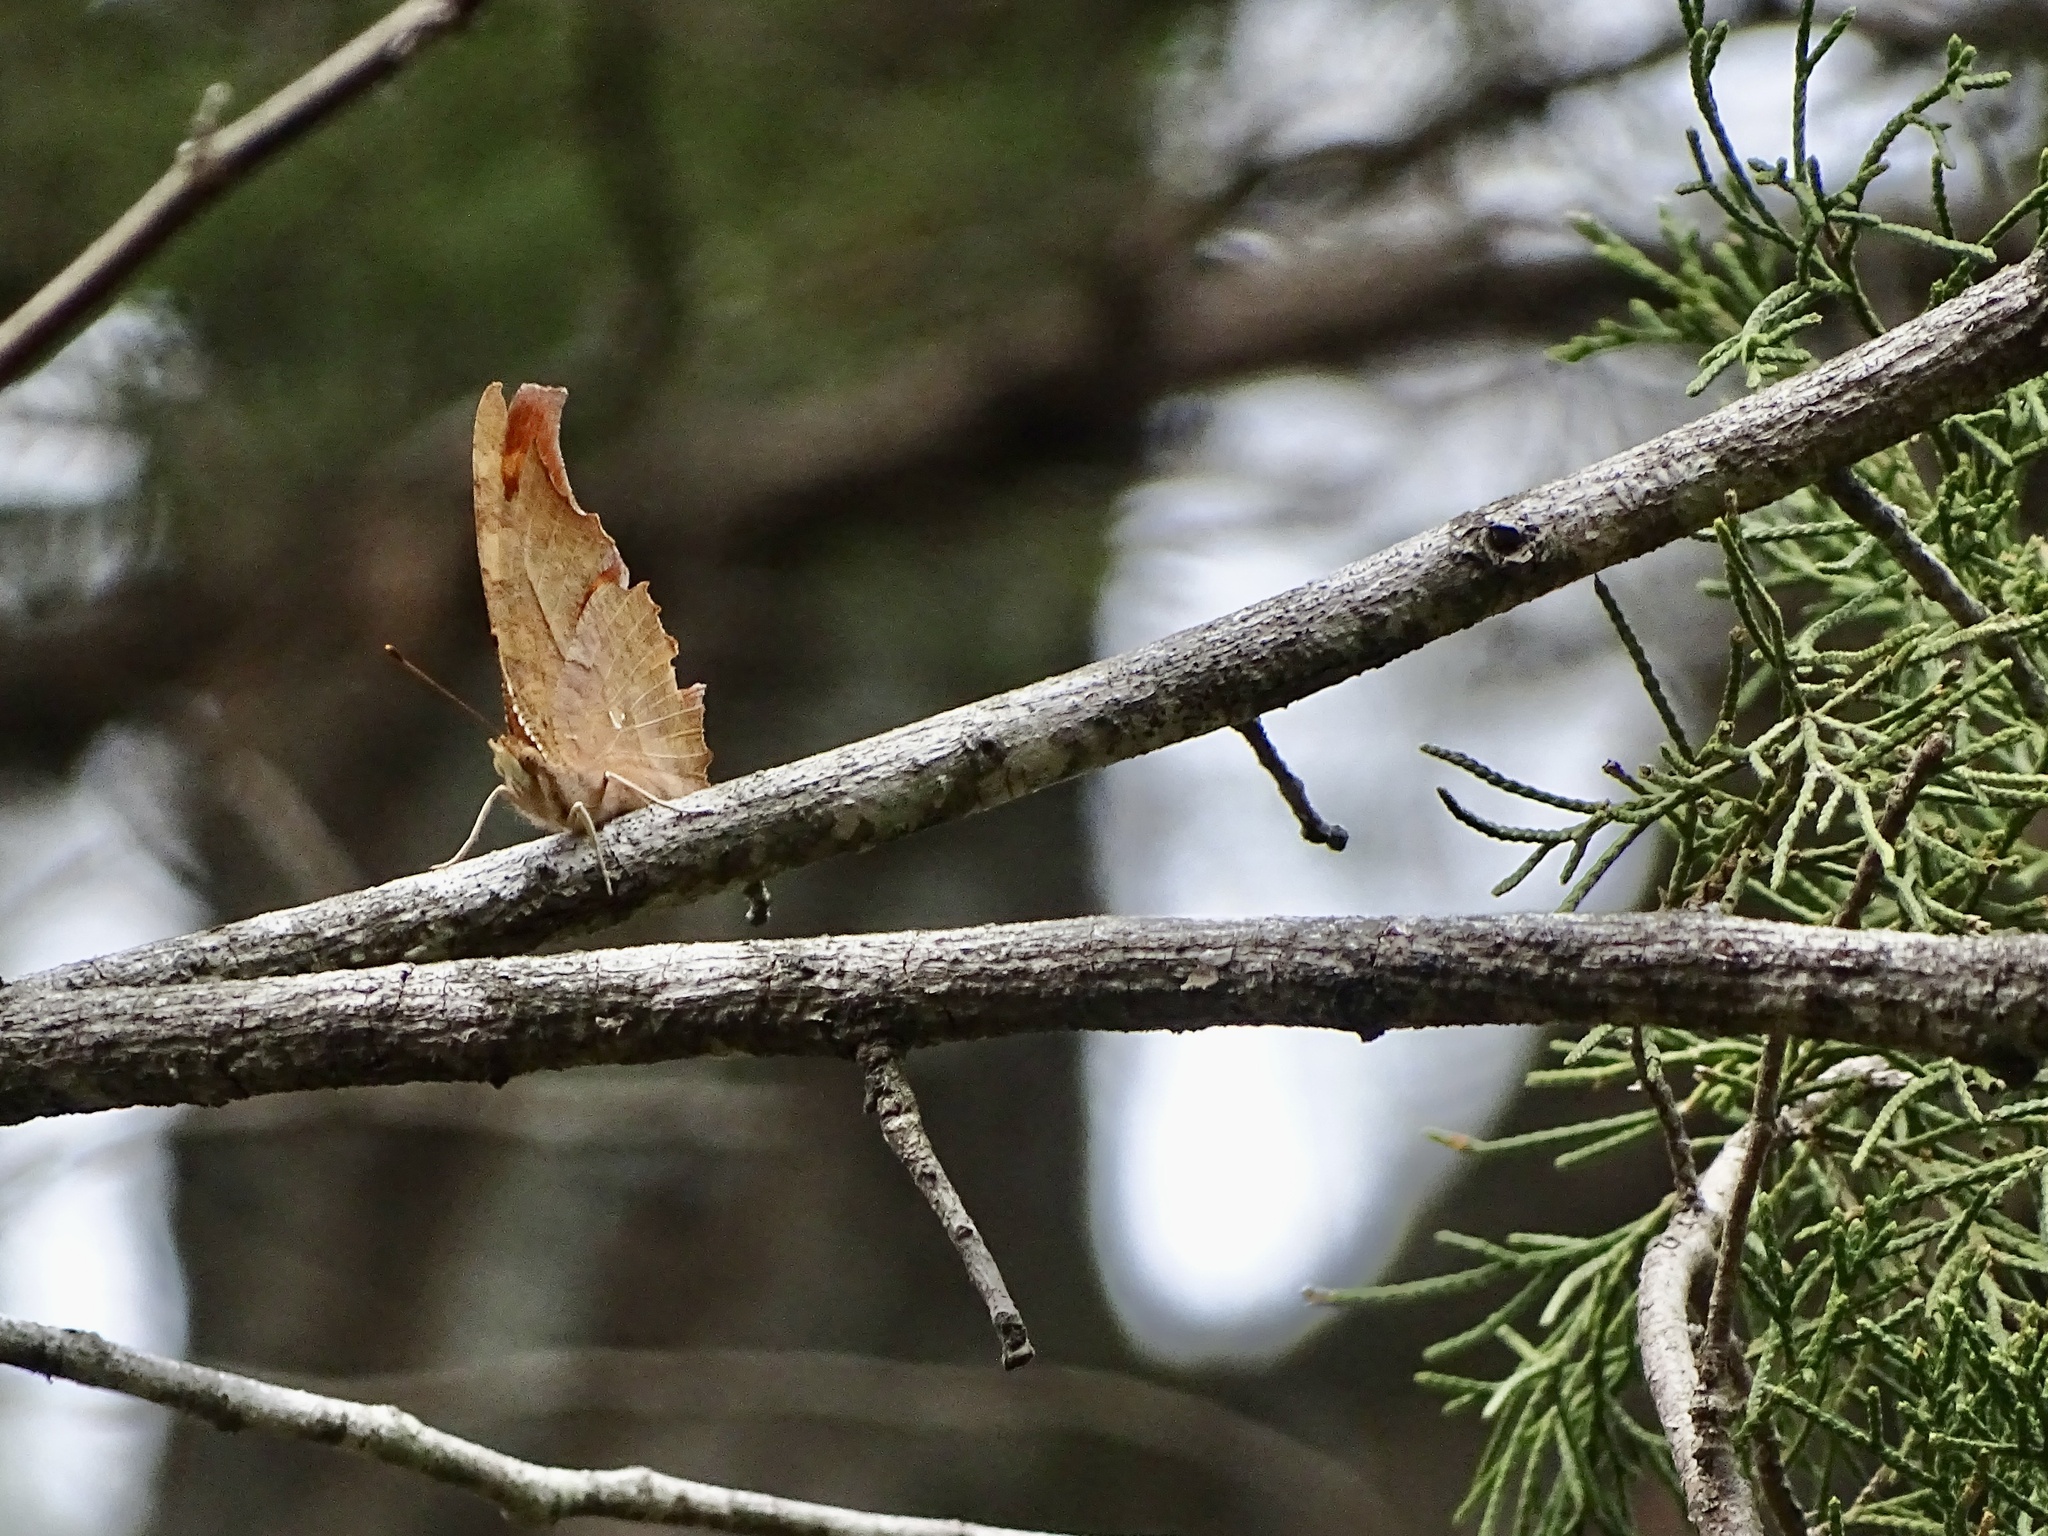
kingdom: Animalia
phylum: Arthropoda
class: Insecta
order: Lepidoptera
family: Nymphalidae
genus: Polygonia
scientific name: Polygonia interrogationis
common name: Question mark
